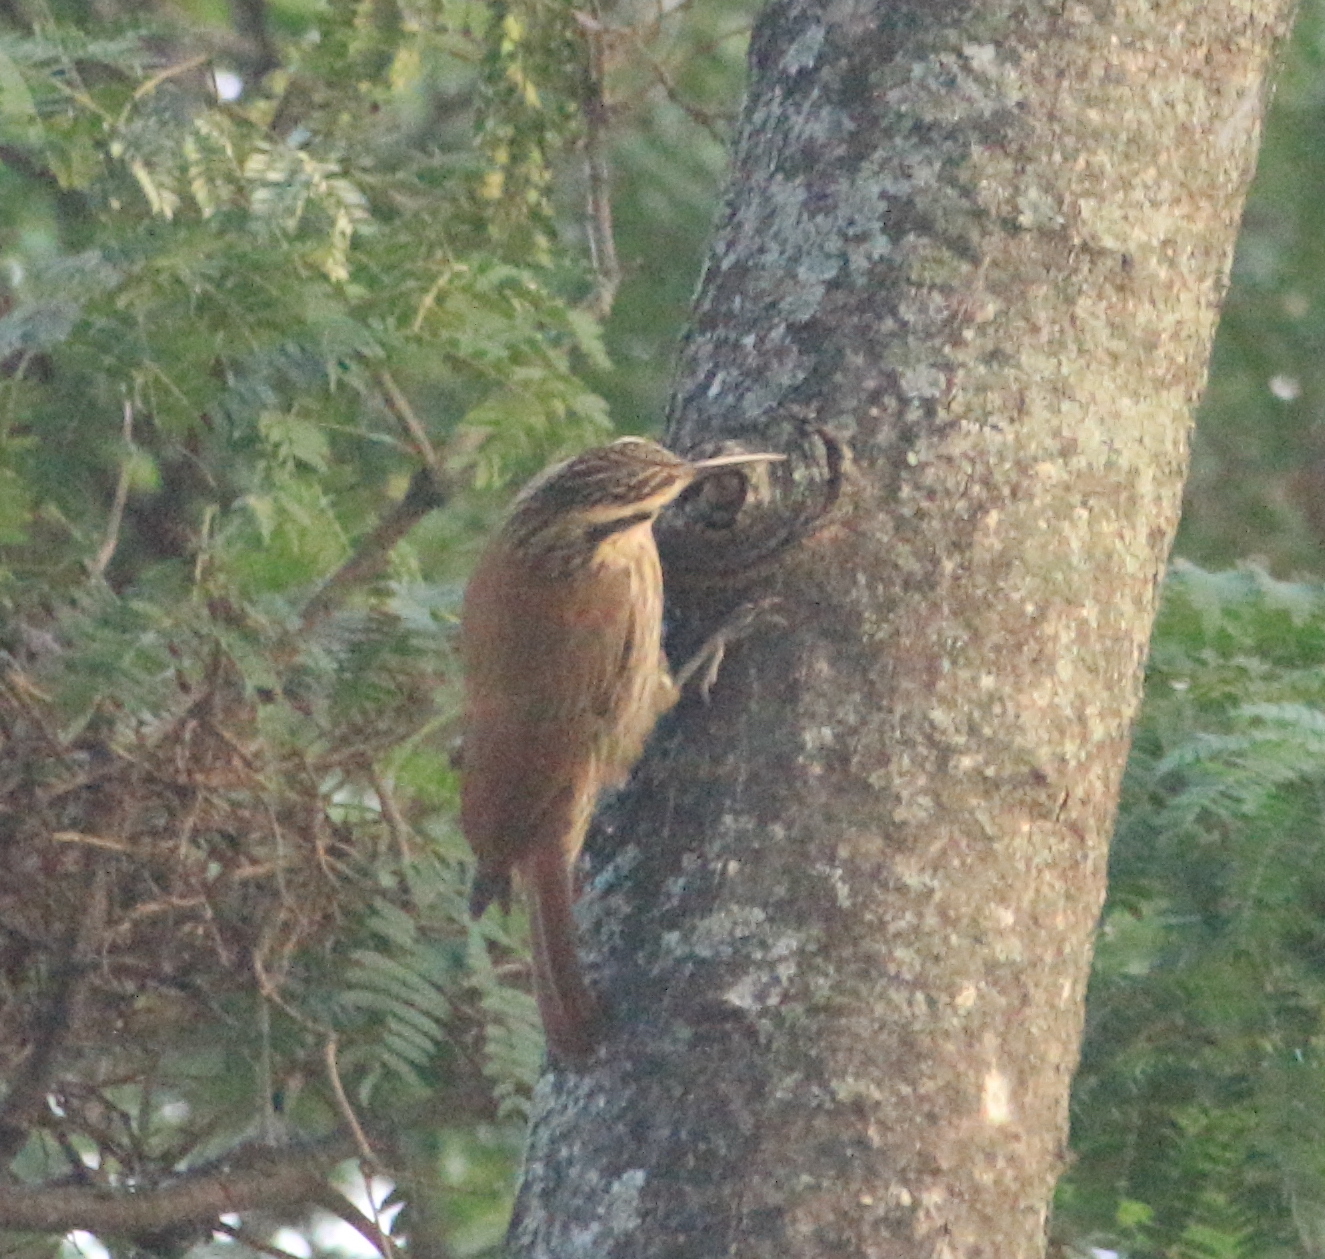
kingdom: Animalia
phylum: Chordata
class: Aves
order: Passeriformes
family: Furnariidae
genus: Lepidocolaptes
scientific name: Lepidocolaptes angustirostris
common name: Narrow-billed woodcreeper
